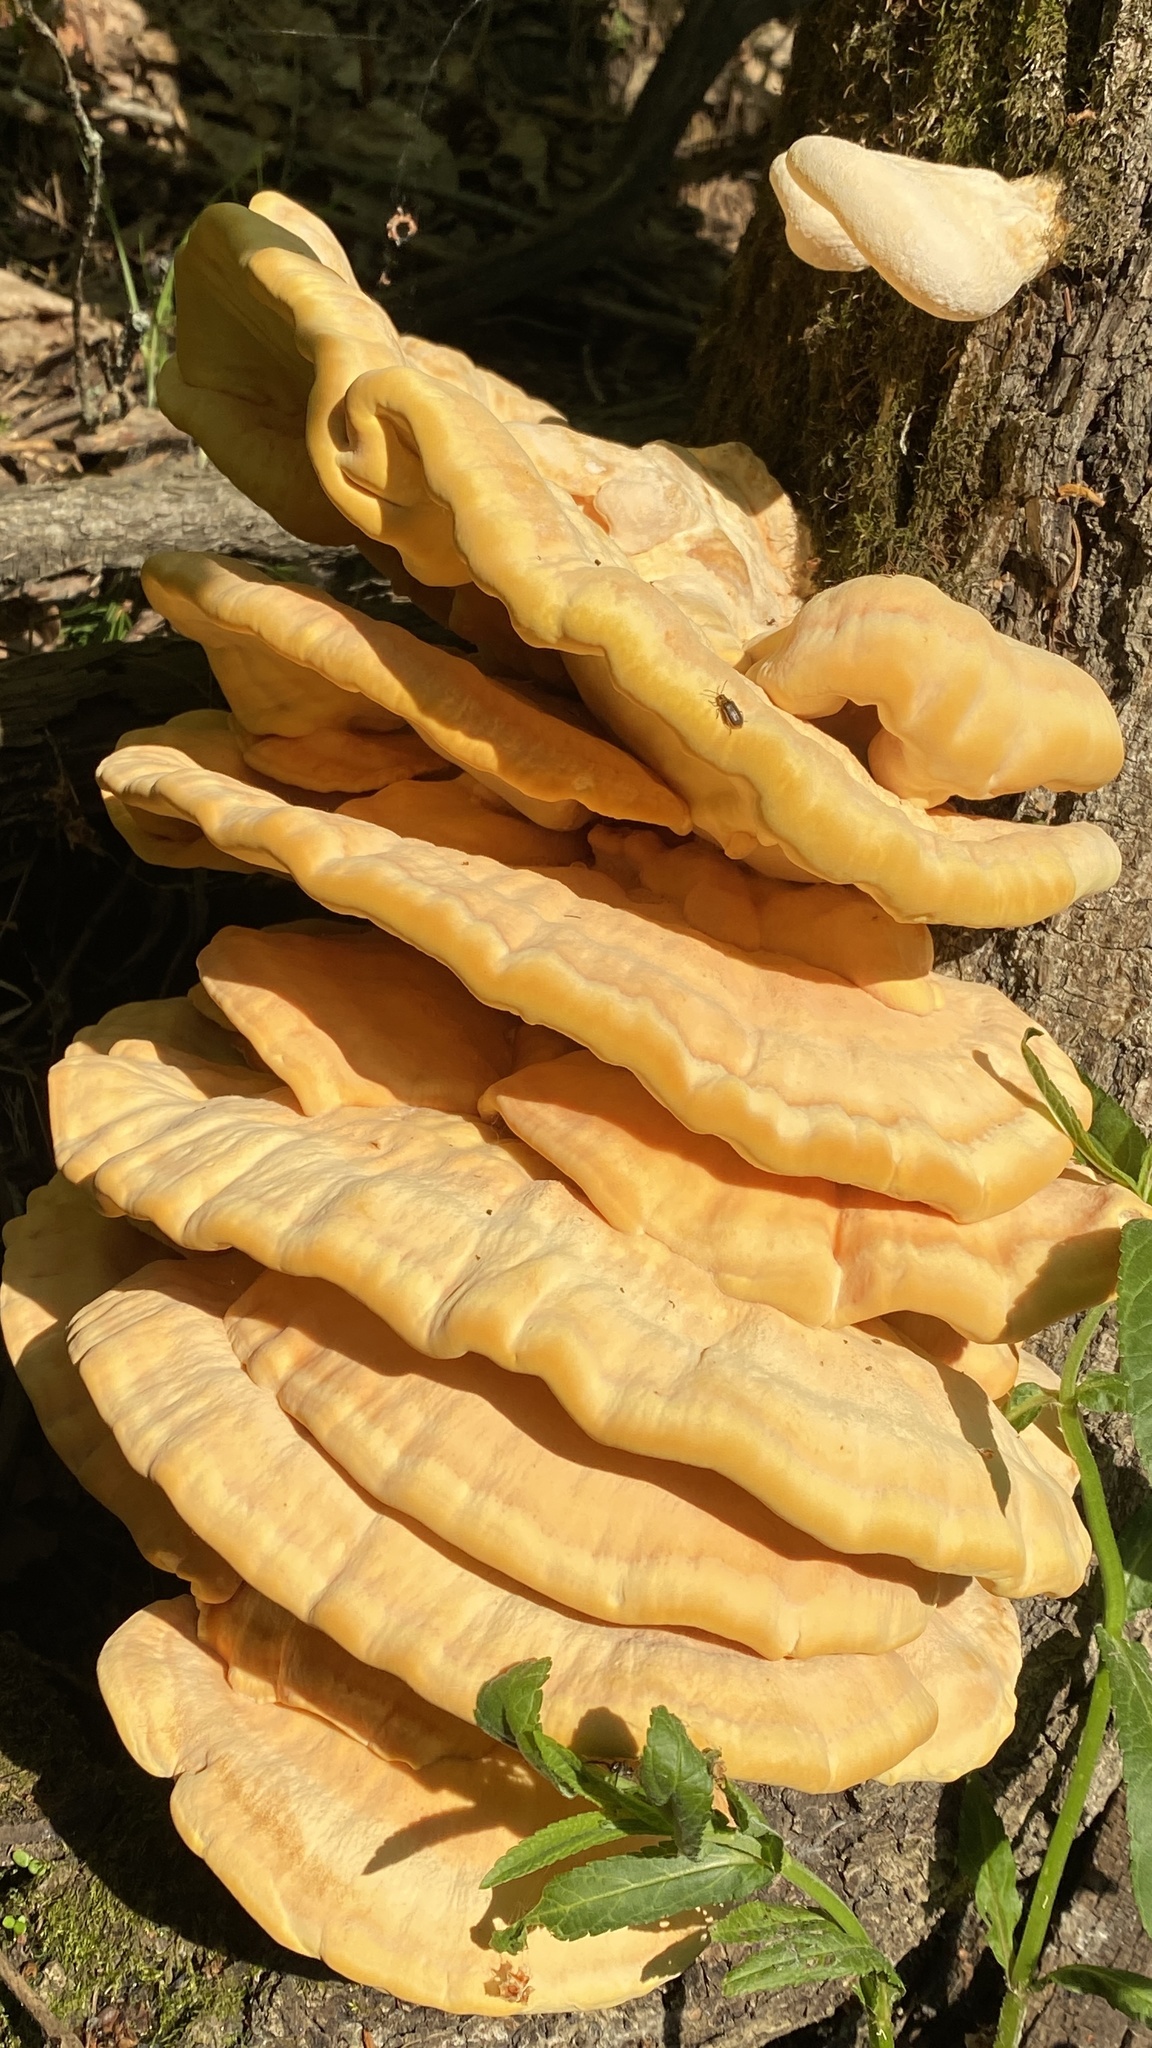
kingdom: Fungi
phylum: Basidiomycota
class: Agaricomycetes
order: Polyporales
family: Laetiporaceae
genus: Laetiporus
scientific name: Laetiporus sulphureus
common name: Chicken of the woods
